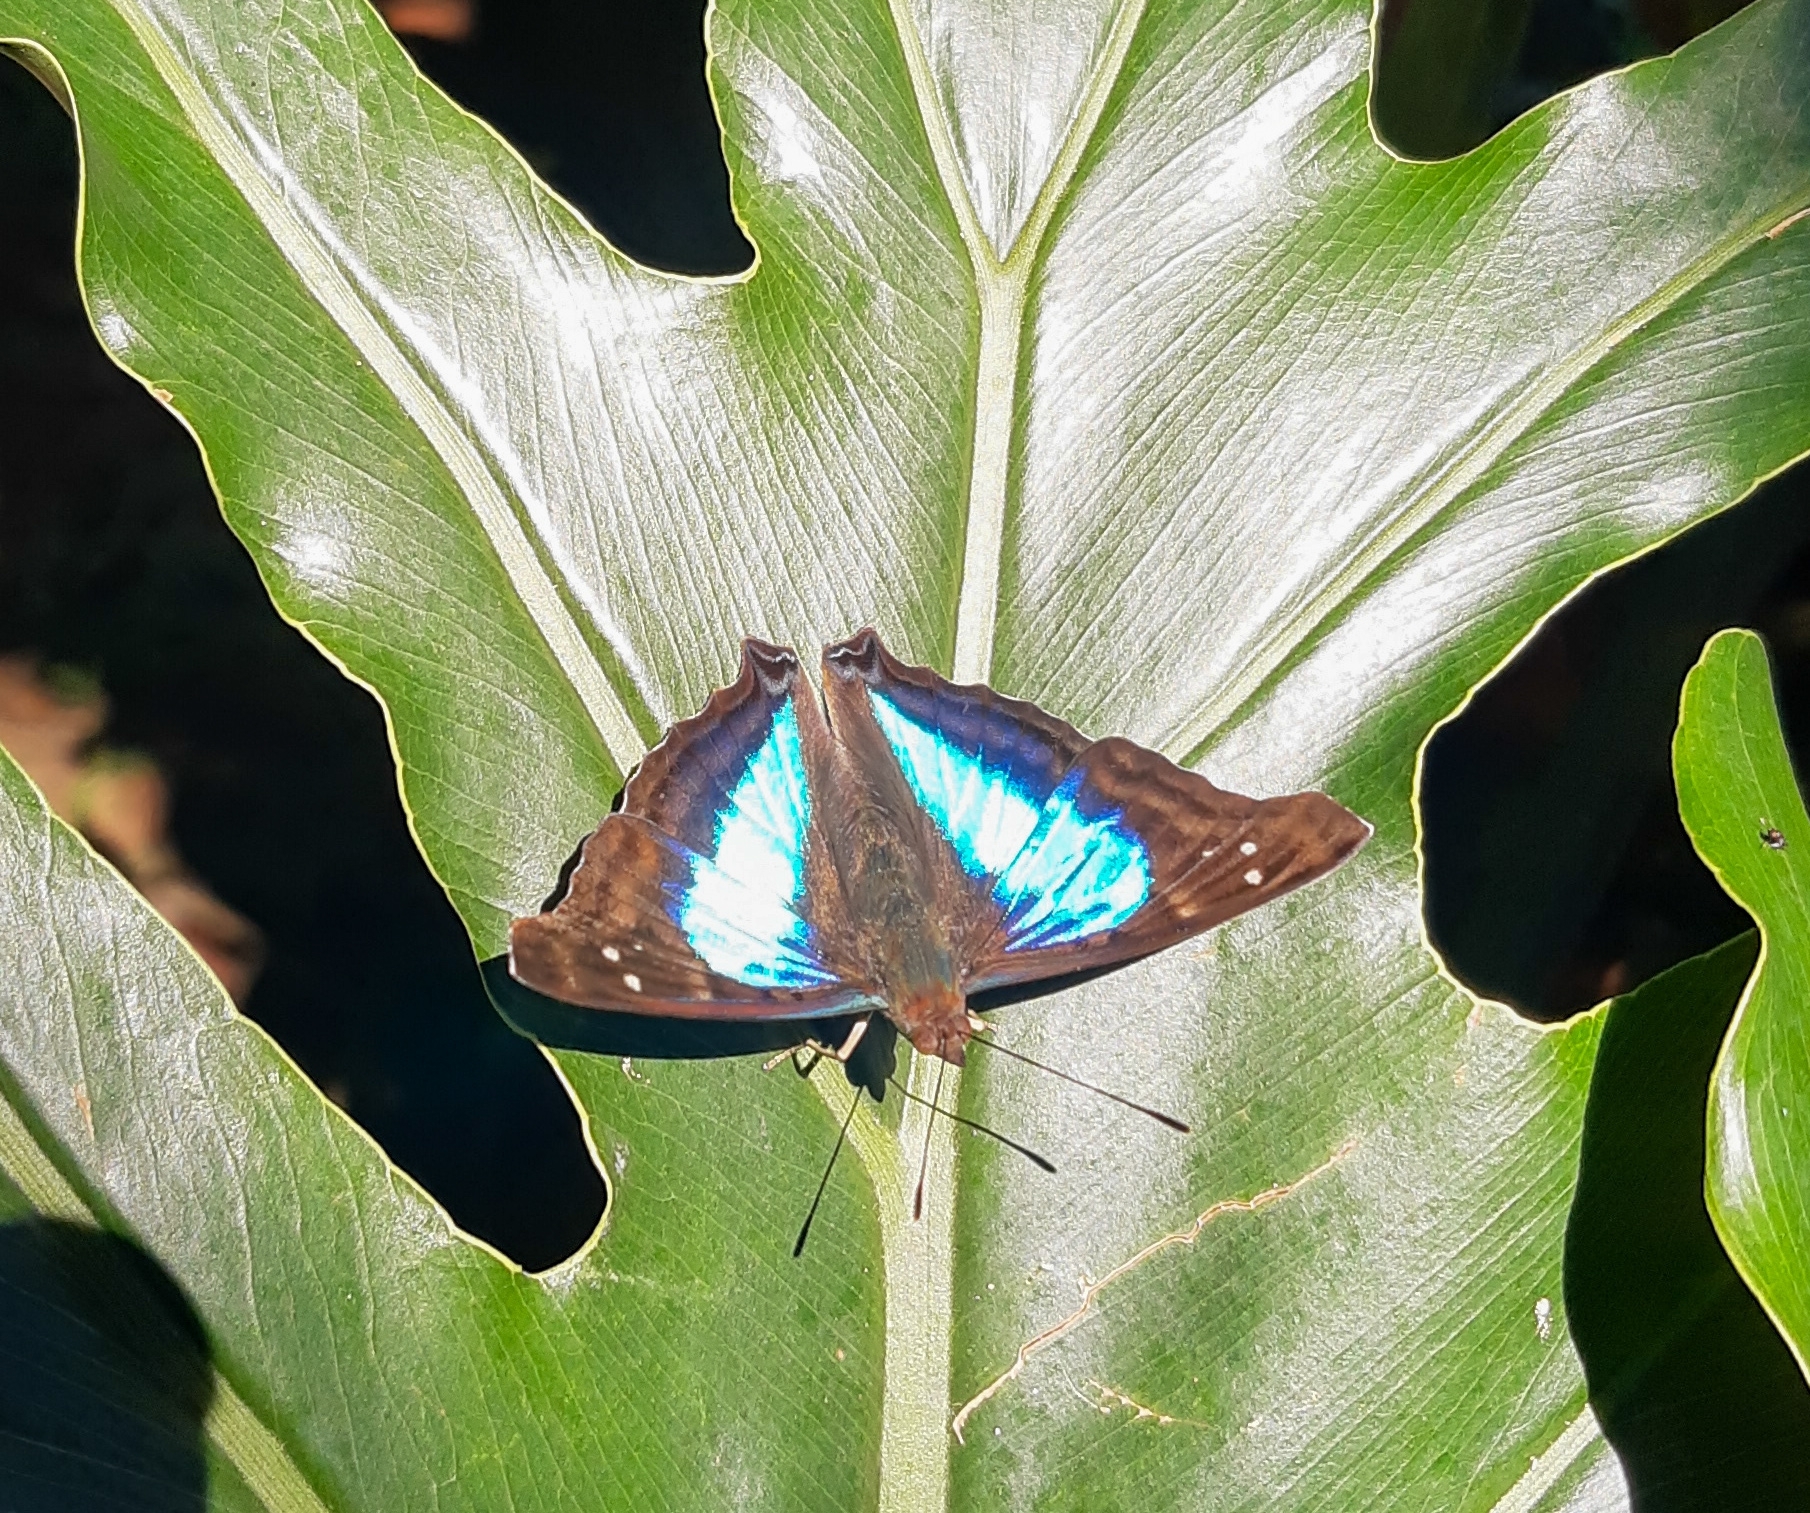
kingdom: Animalia
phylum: Arthropoda
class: Insecta
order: Lepidoptera
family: Nymphalidae
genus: Doxocopa
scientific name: Doxocopa laurentia
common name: Turquoise emperor
